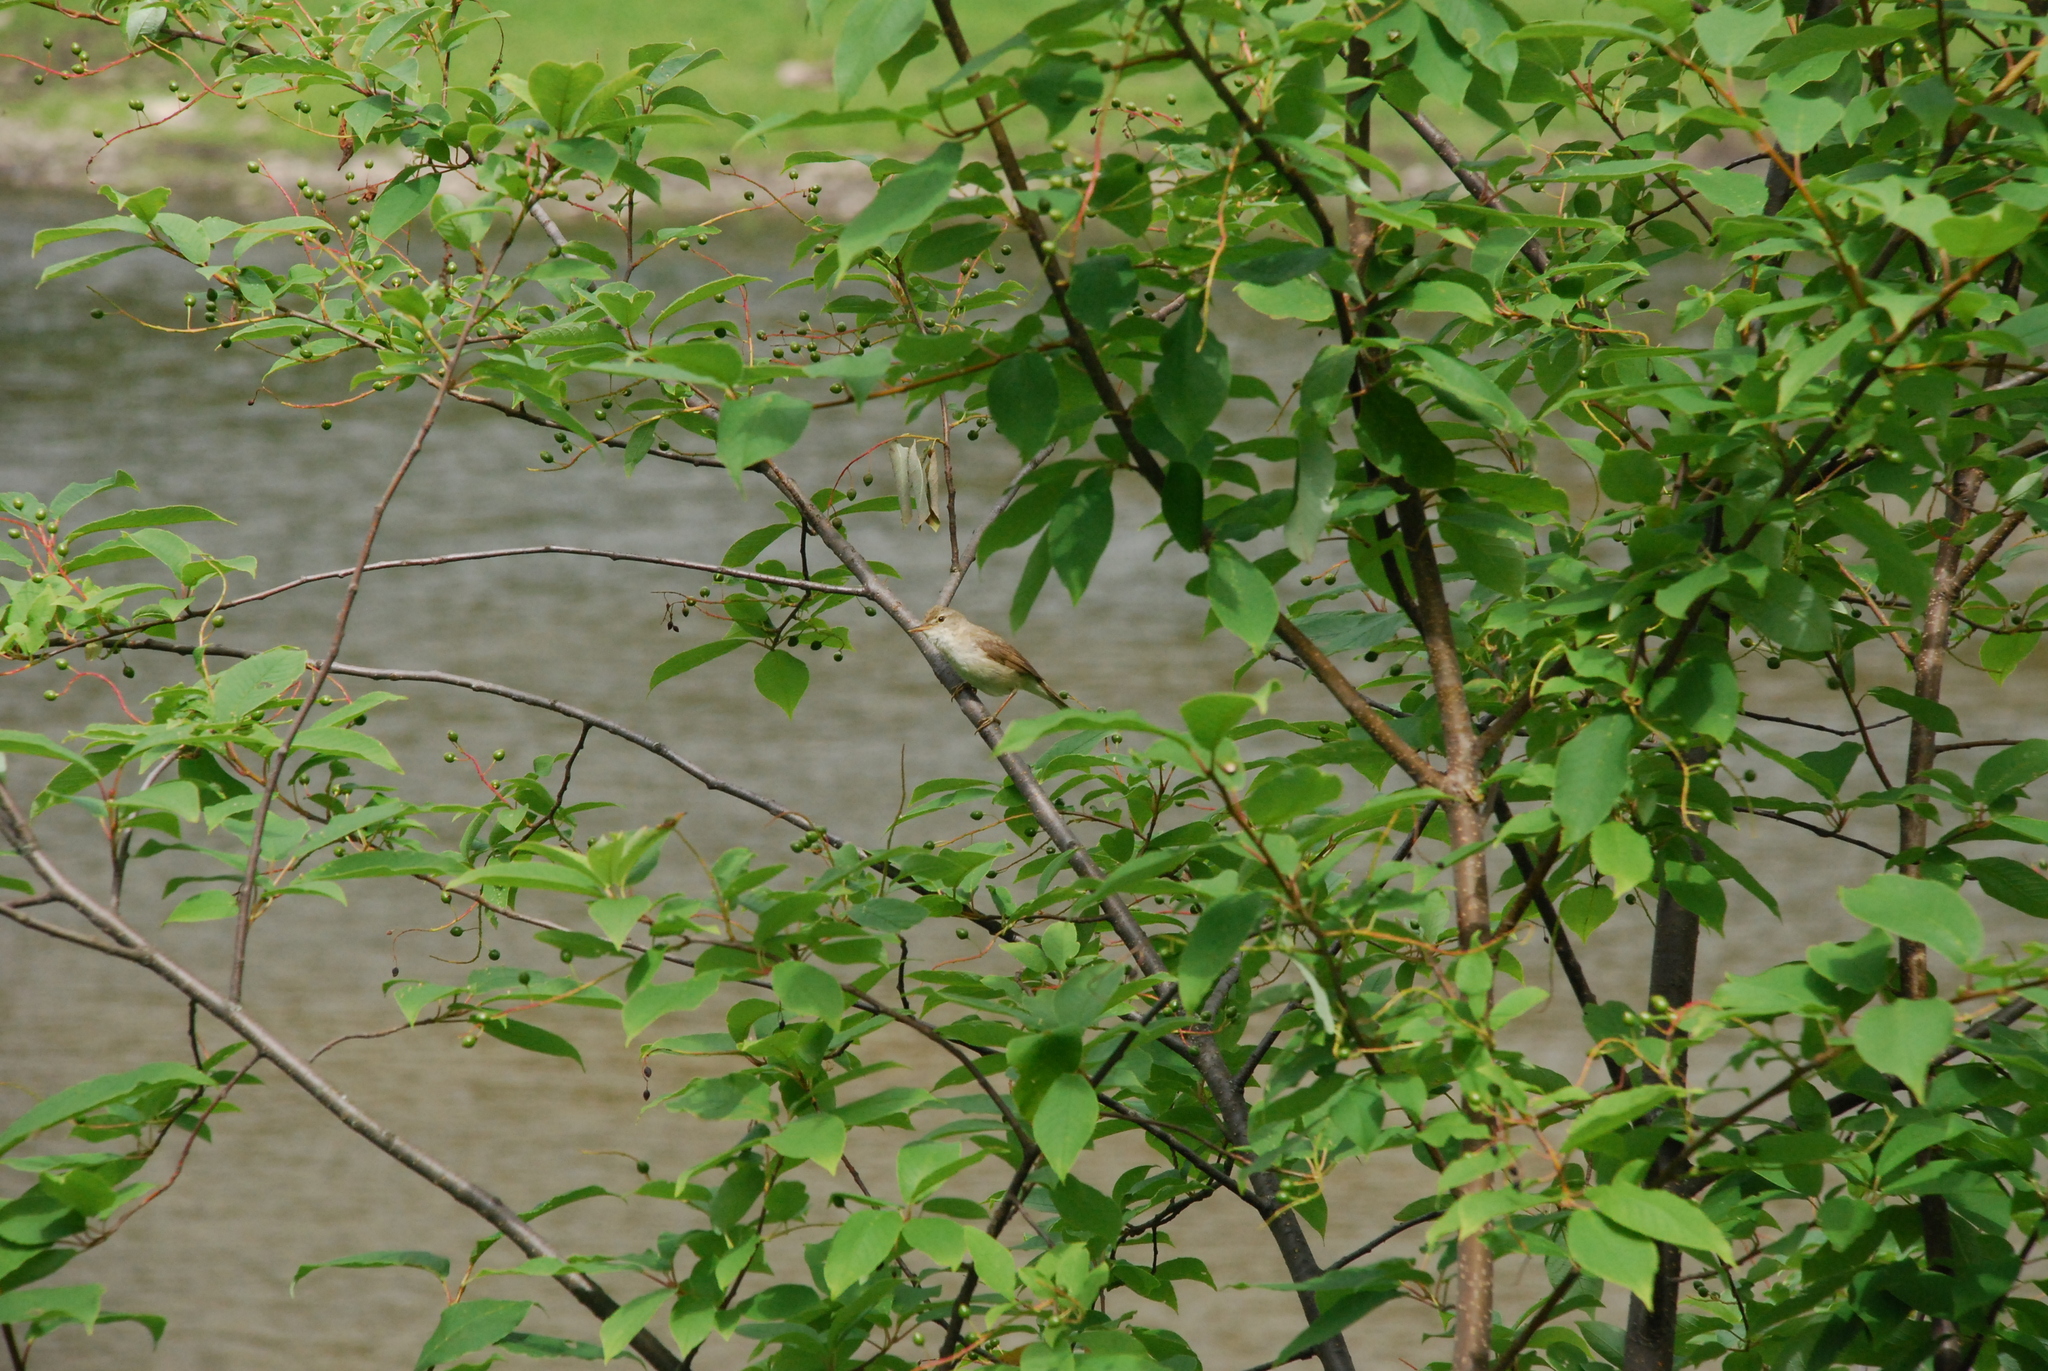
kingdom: Animalia
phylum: Chordata
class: Aves
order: Passeriformes
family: Acrocephalidae
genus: Acrocephalus
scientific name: Acrocephalus dumetorum
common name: Blyth's reed warbler
